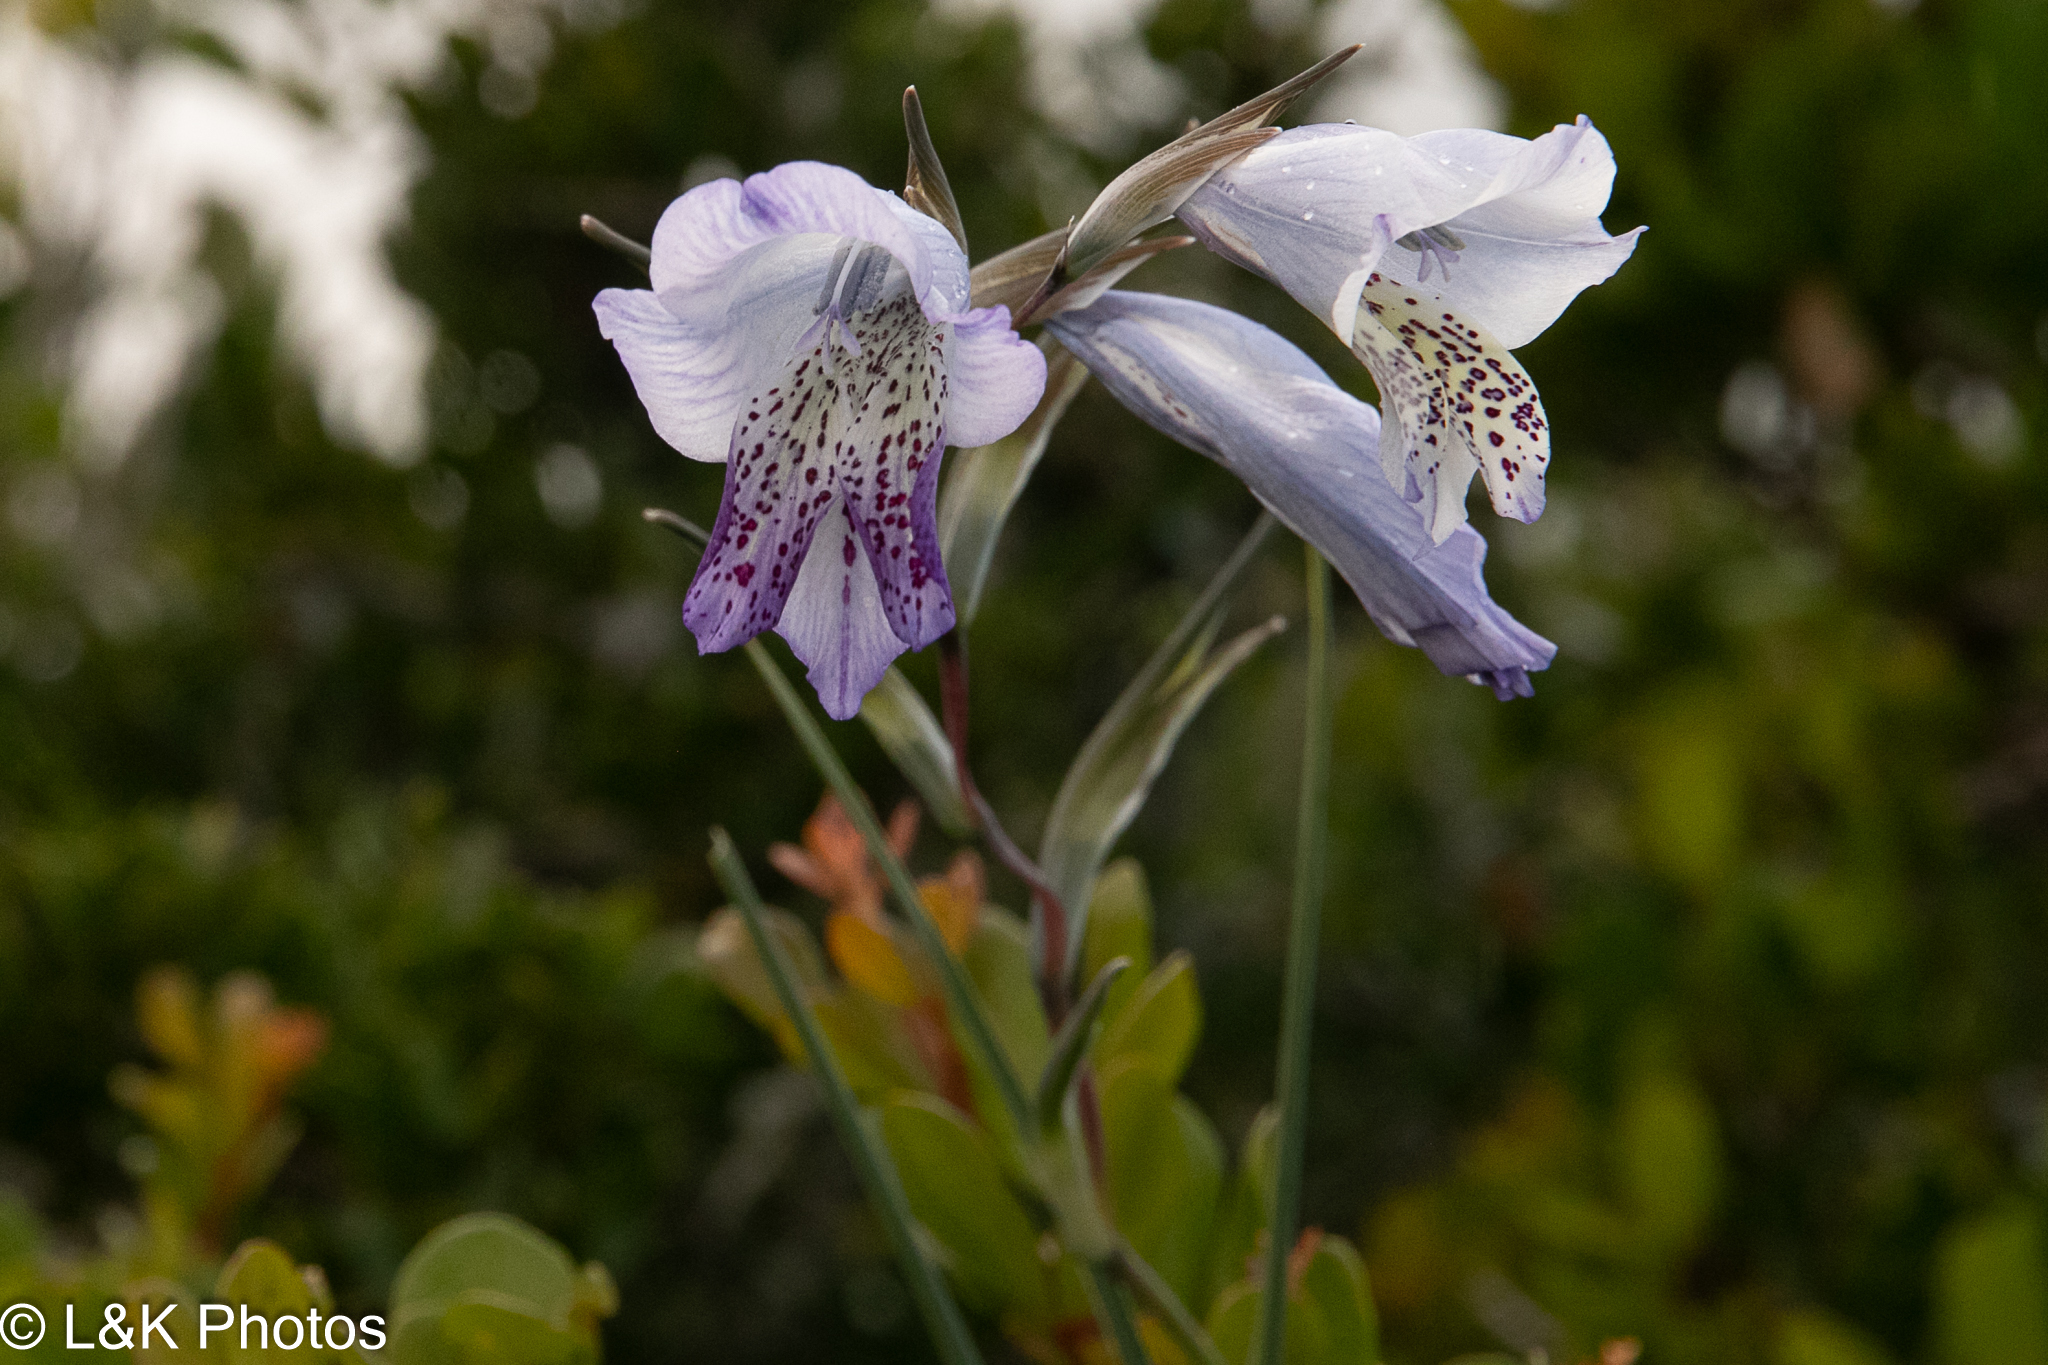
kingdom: Plantae
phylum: Tracheophyta
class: Liliopsida
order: Asparagales
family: Iridaceae
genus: Gladiolus
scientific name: Gladiolus caeruleus
